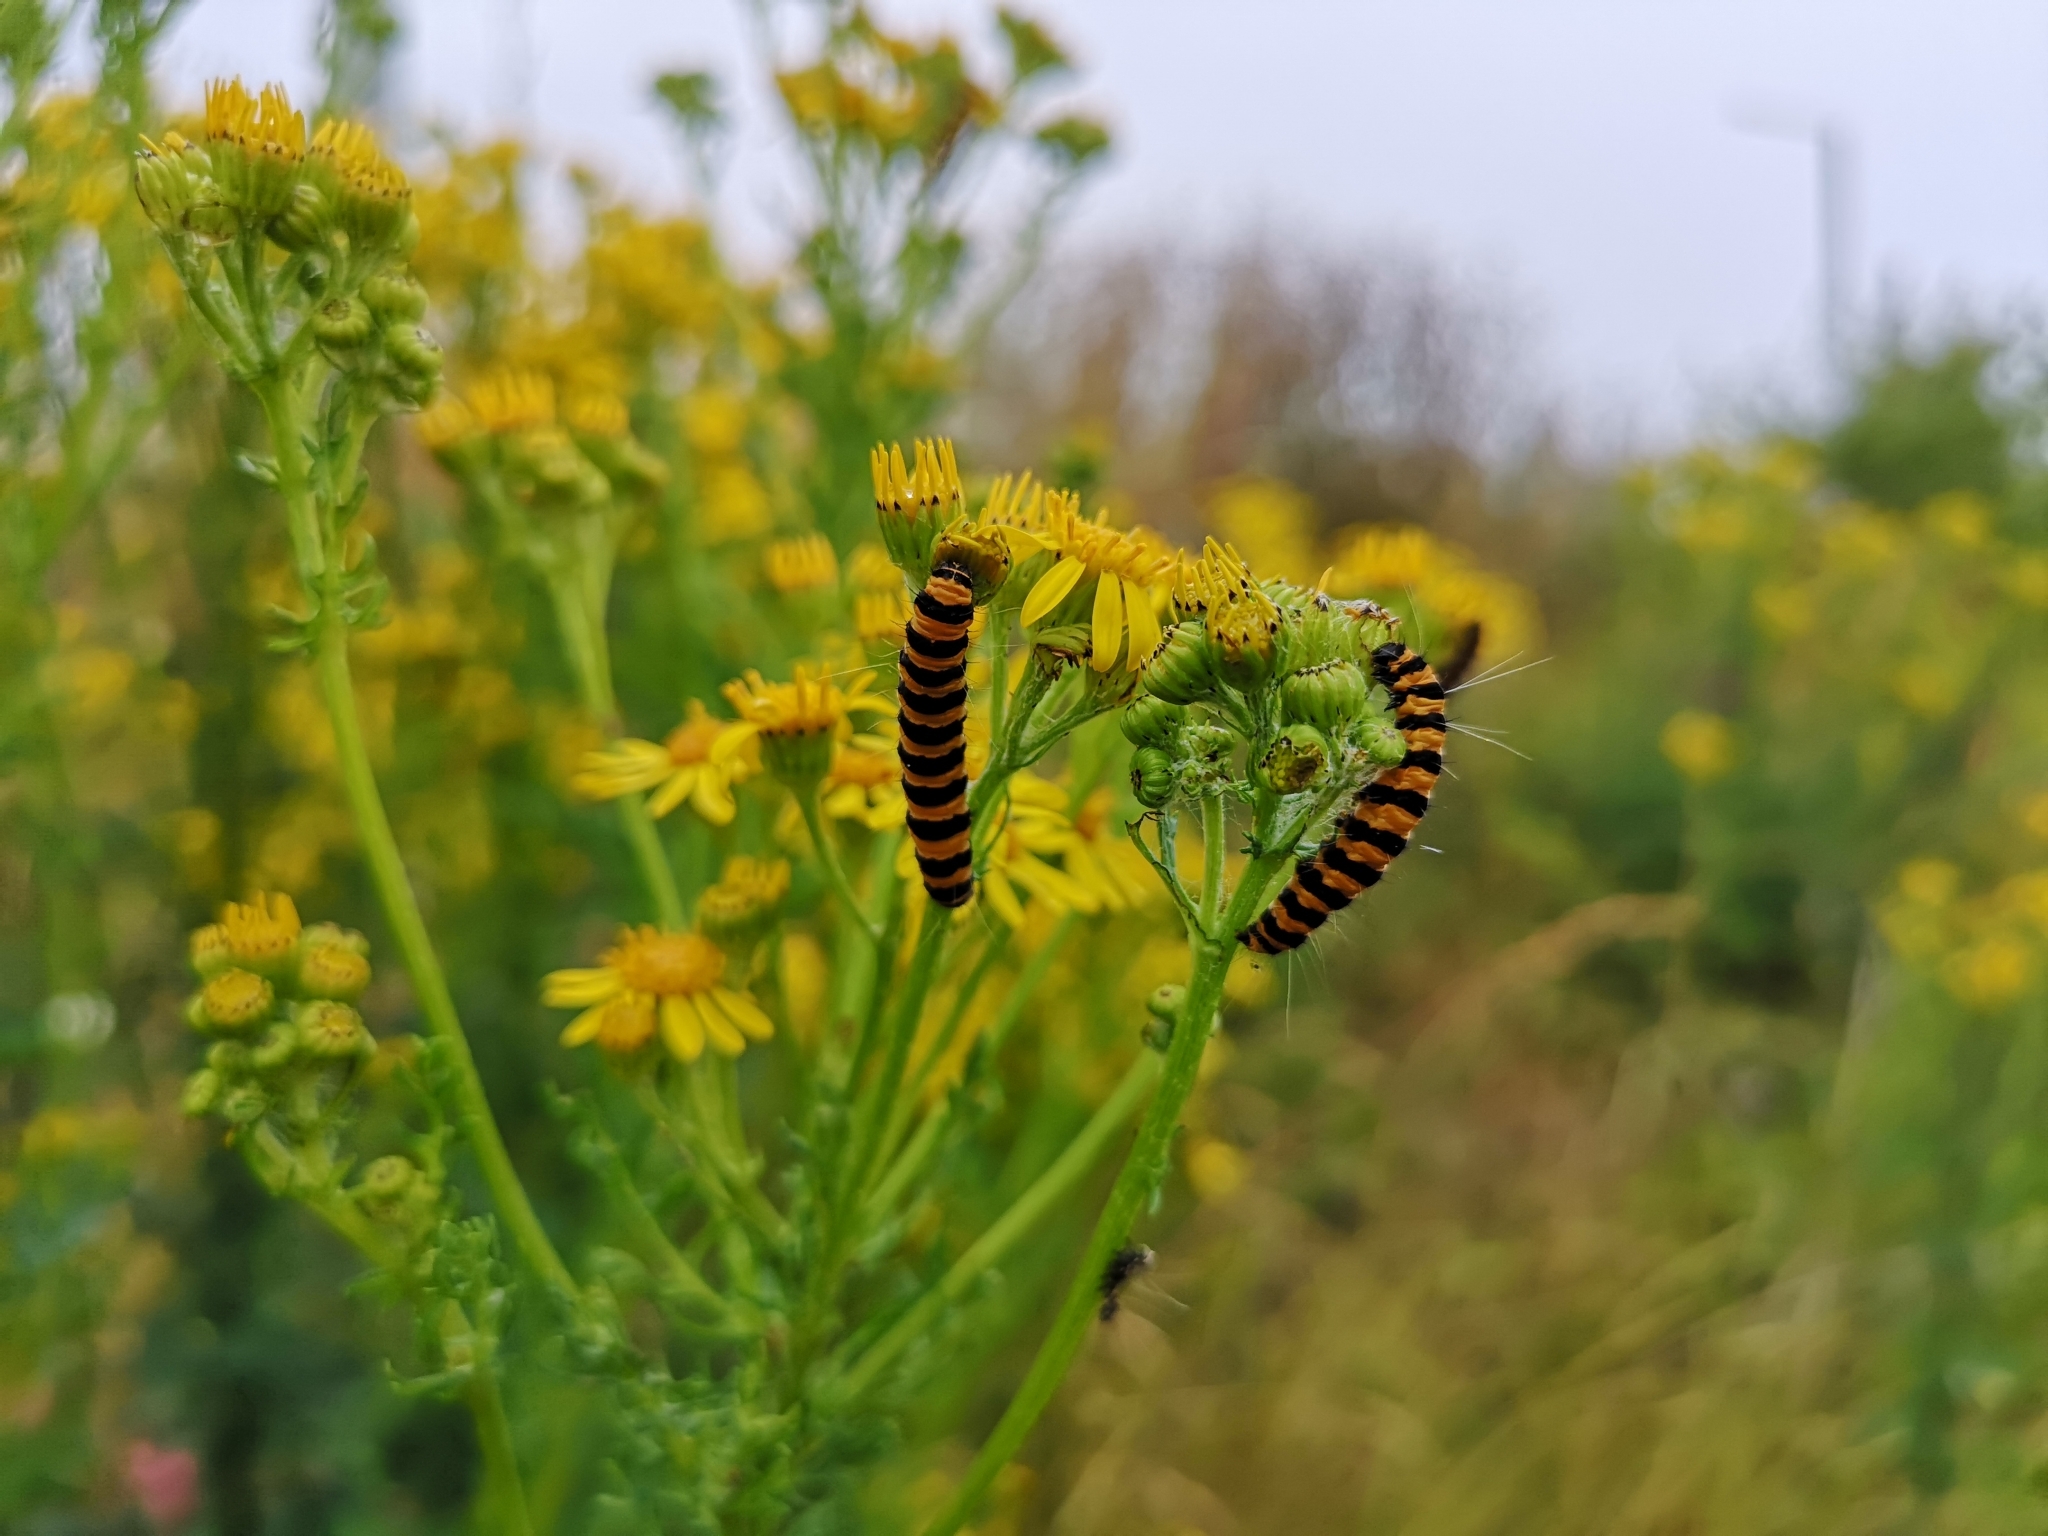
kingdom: Animalia
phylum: Arthropoda
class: Insecta
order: Lepidoptera
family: Erebidae
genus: Tyria
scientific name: Tyria jacobaeae
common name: Cinnabar
